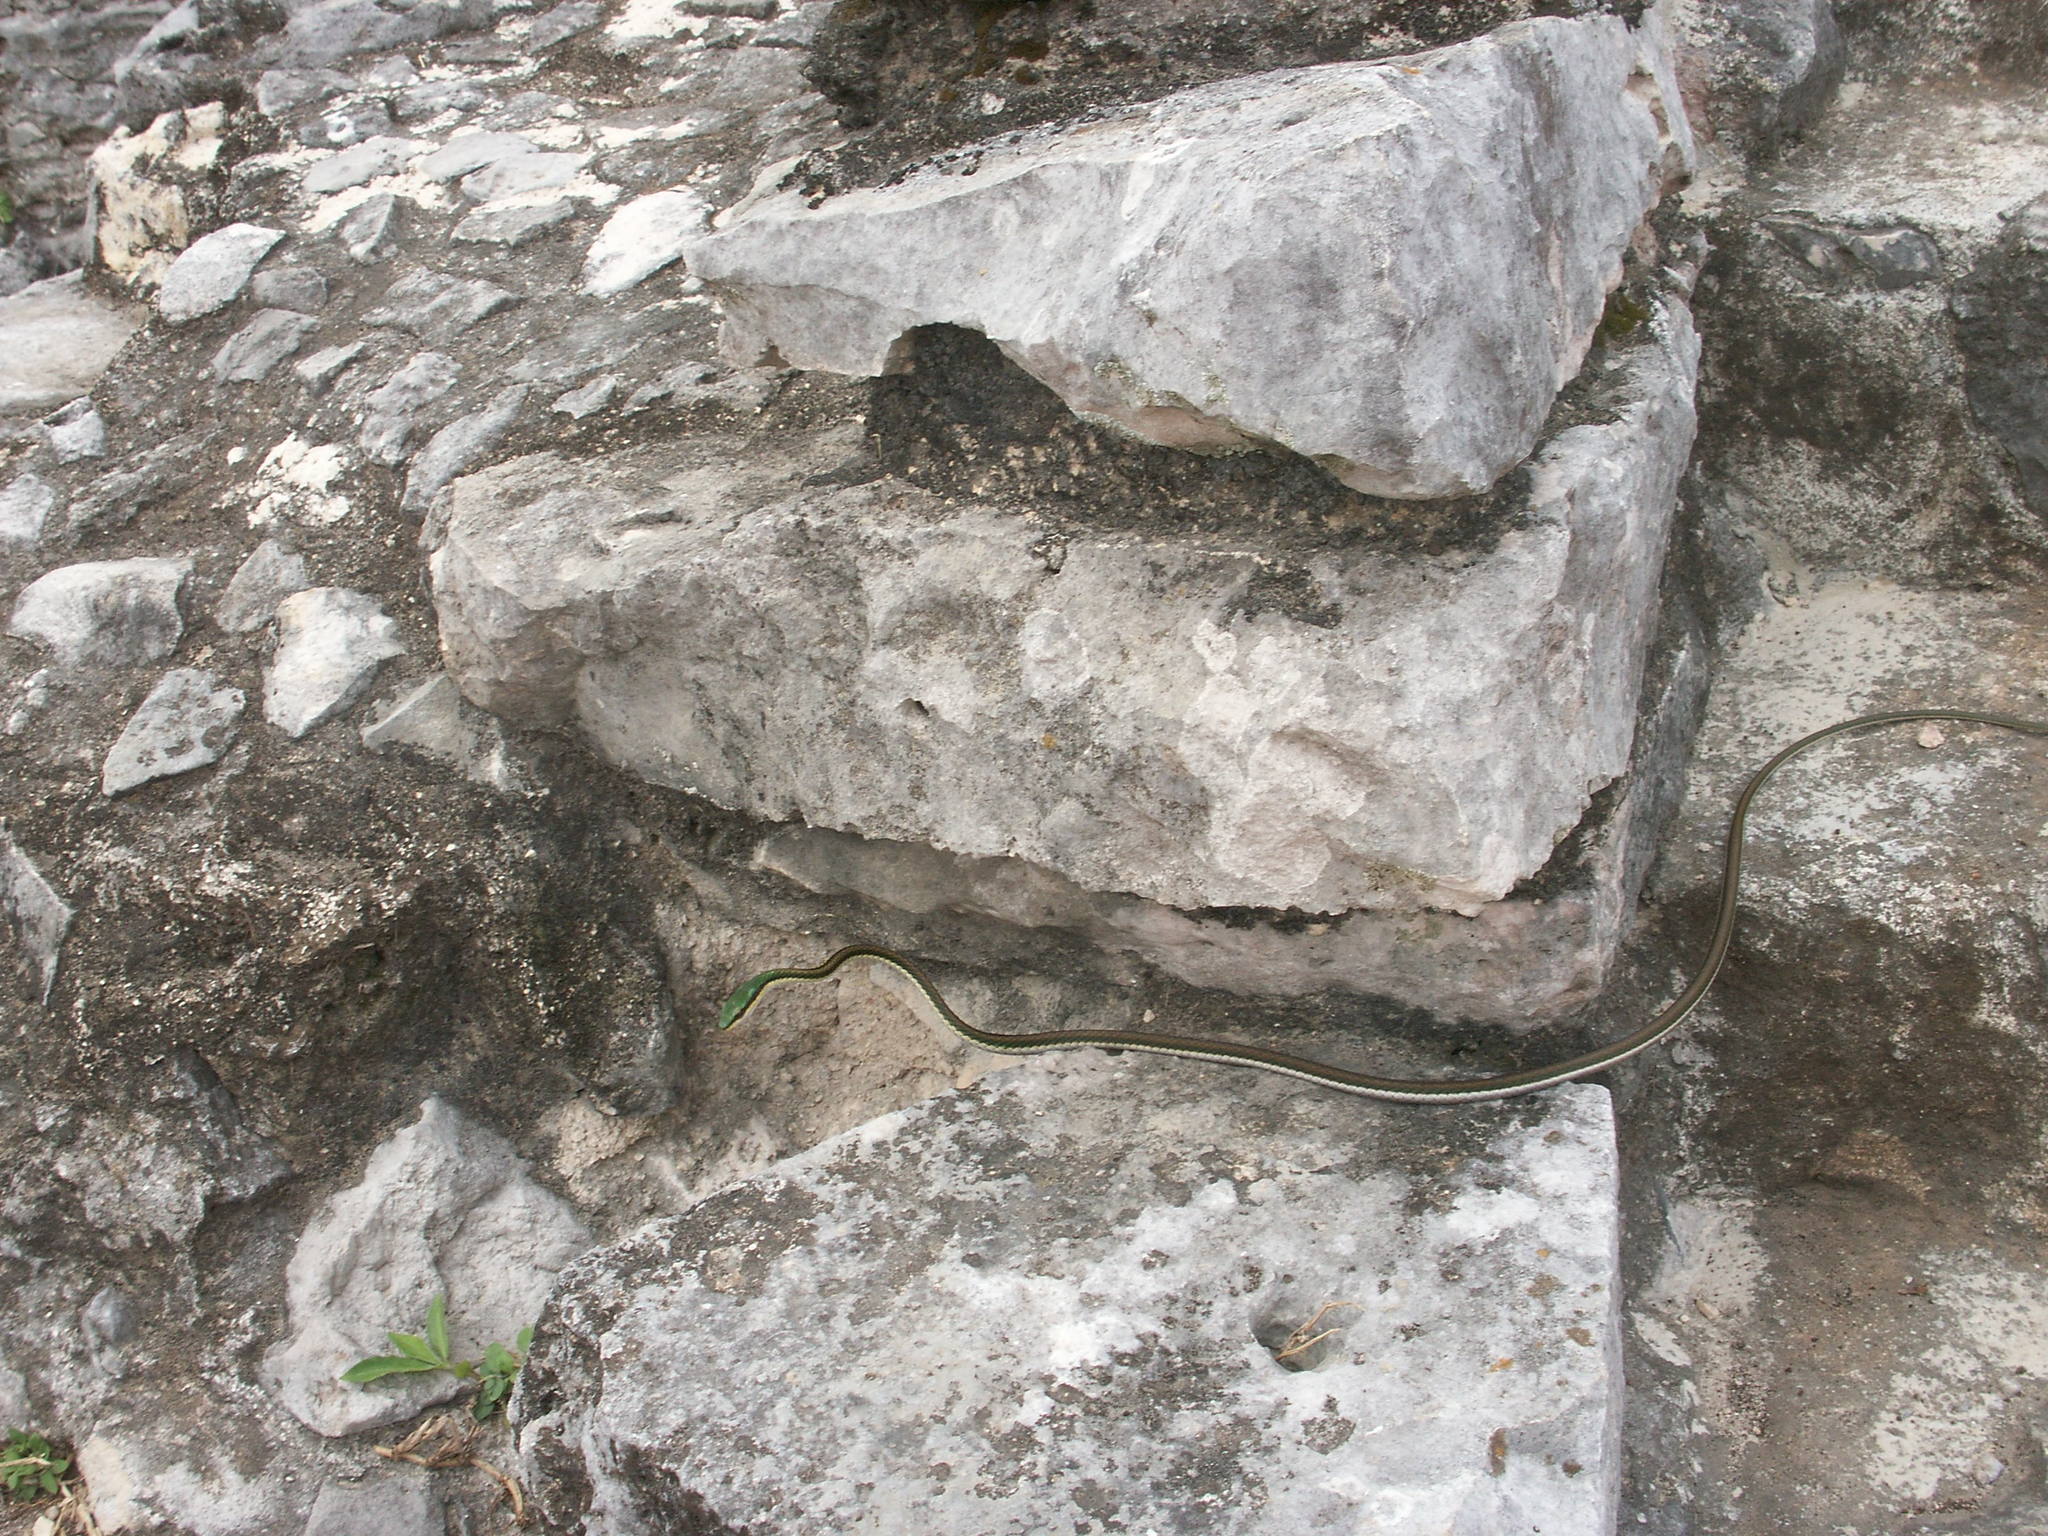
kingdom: Animalia
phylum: Chordata
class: Squamata
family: Colubridae
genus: Leptophis
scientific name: Leptophis mexicanus
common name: Mexican parrot snake
